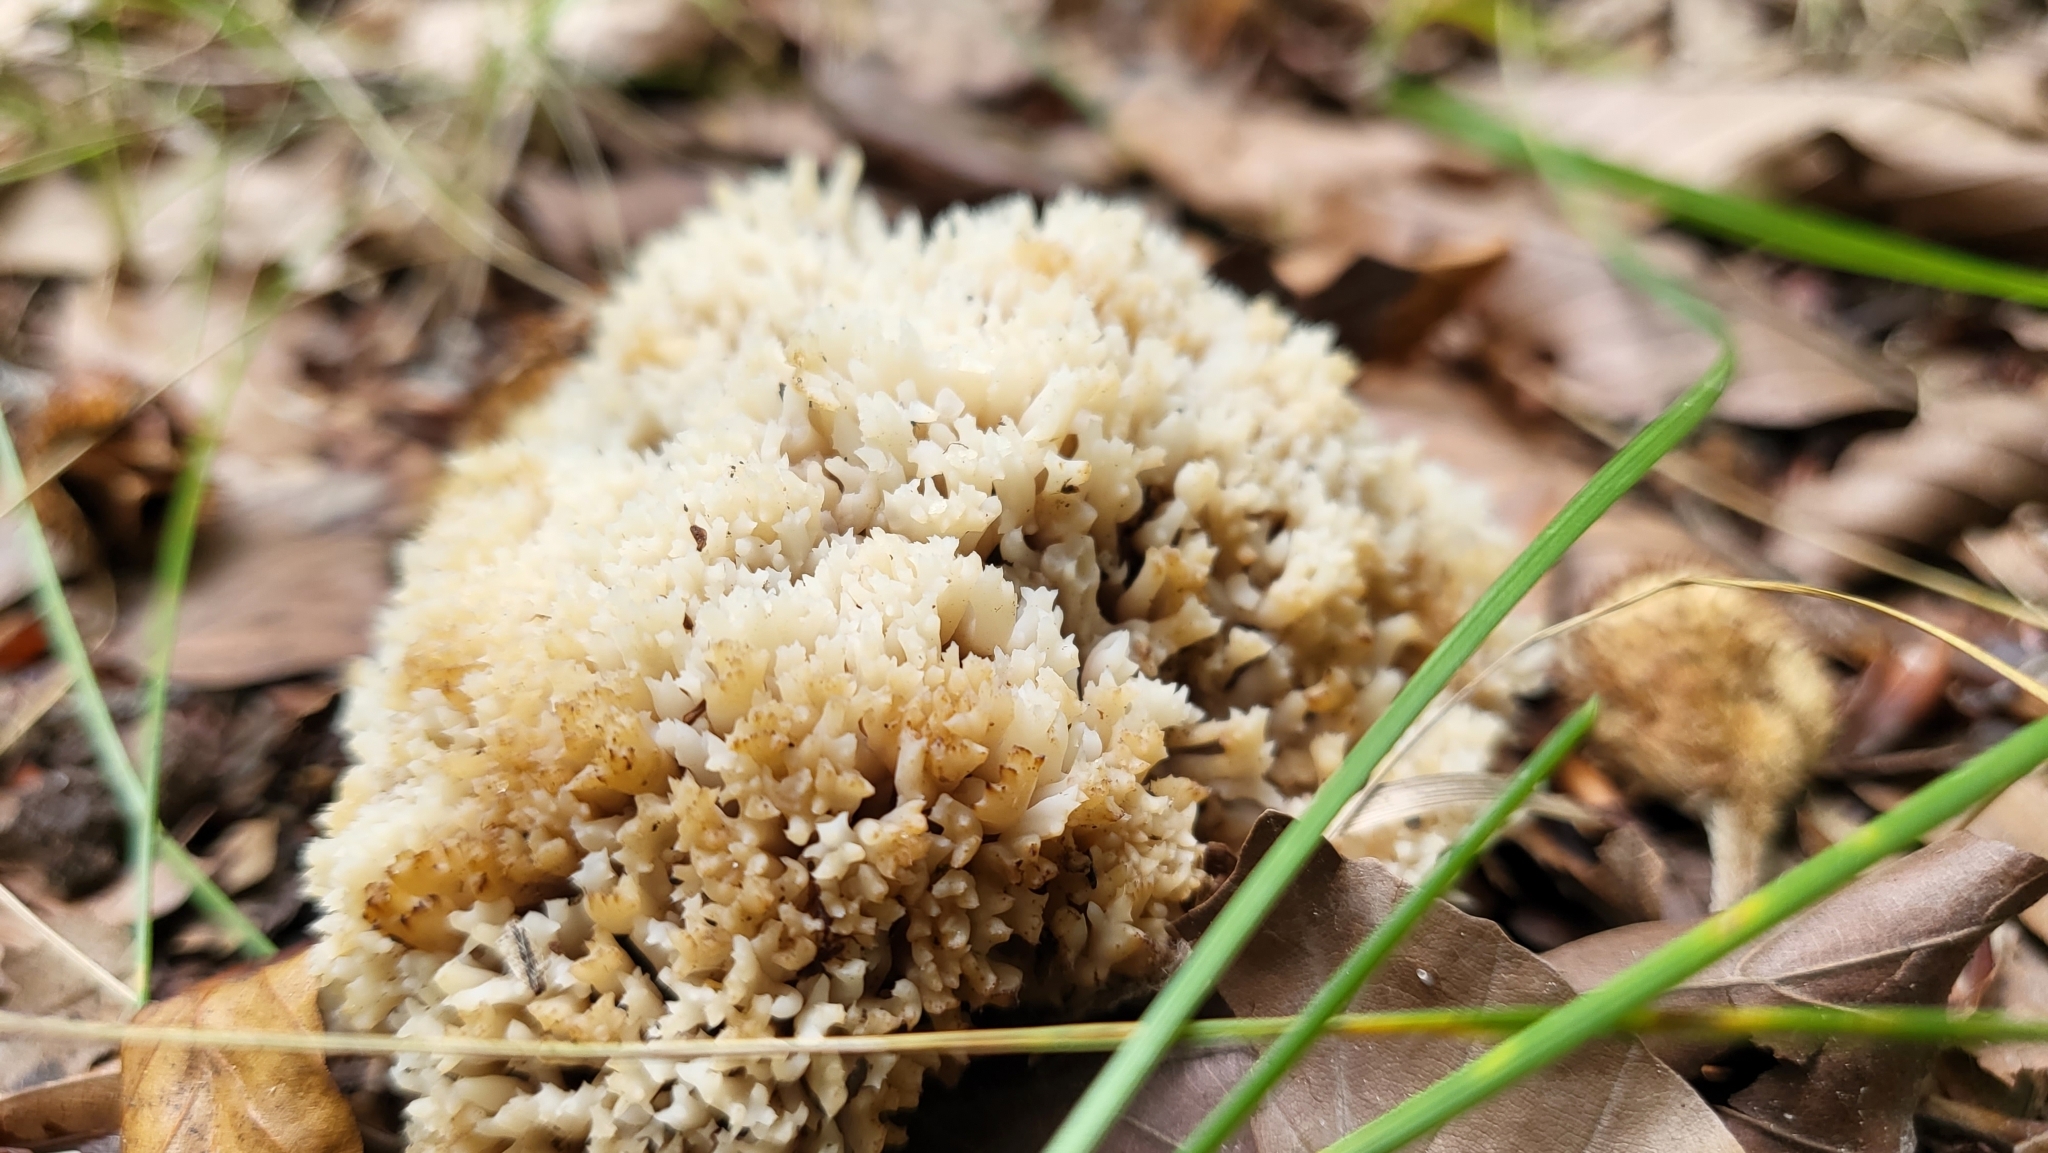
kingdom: Fungi
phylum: Basidiomycota
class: Agaricomycetes
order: Cantharellales
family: Hydnaceae
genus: Clavulina
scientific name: Clavulina coralloides
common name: Crested coral
